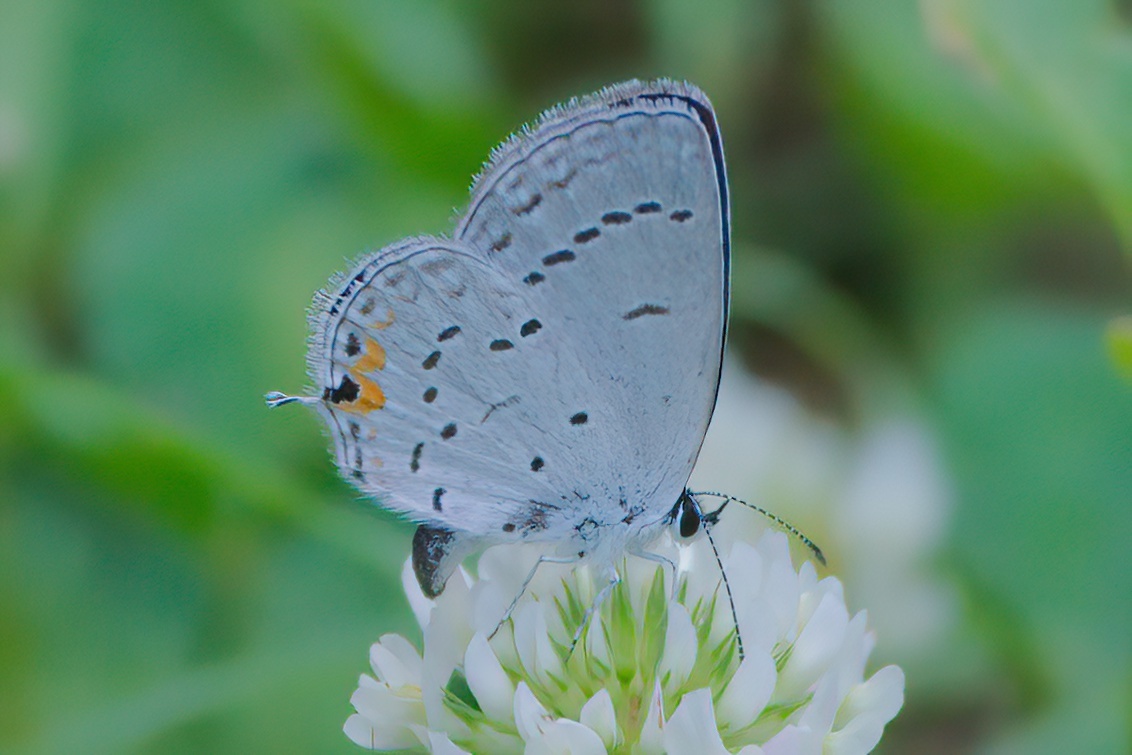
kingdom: Animalia
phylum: Arthropoda
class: Insecta
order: Lepidoptera
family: Lycaenidae
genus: Elkalyce
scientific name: Elkalyce comyntas
